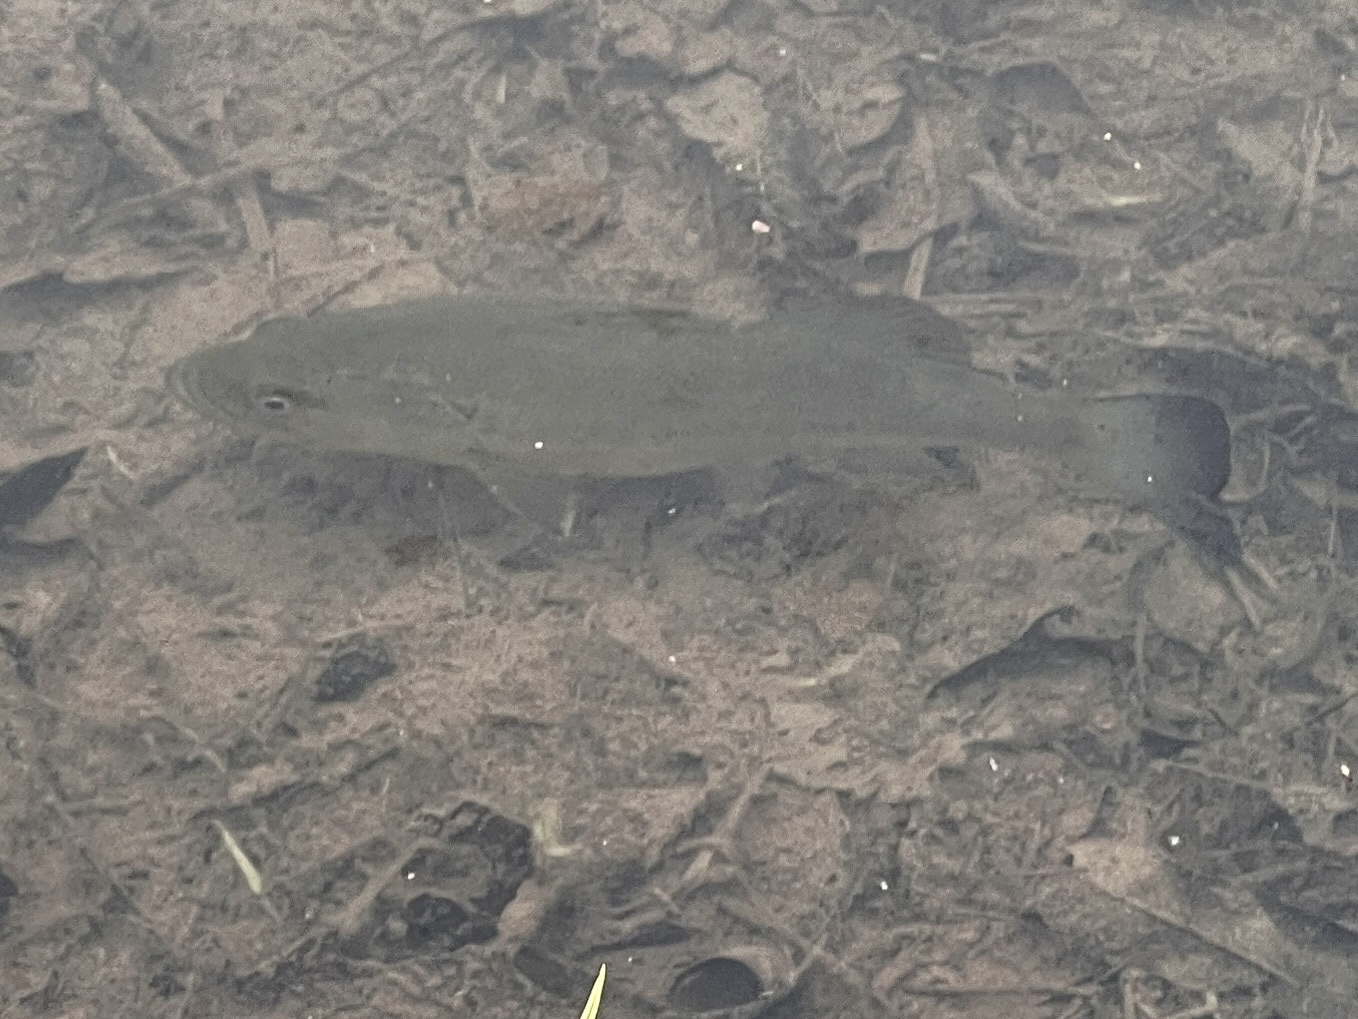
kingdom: Animalia
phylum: Chordata
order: Perciformes
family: Centrarchidae
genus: Micropterus
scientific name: Micropterus
